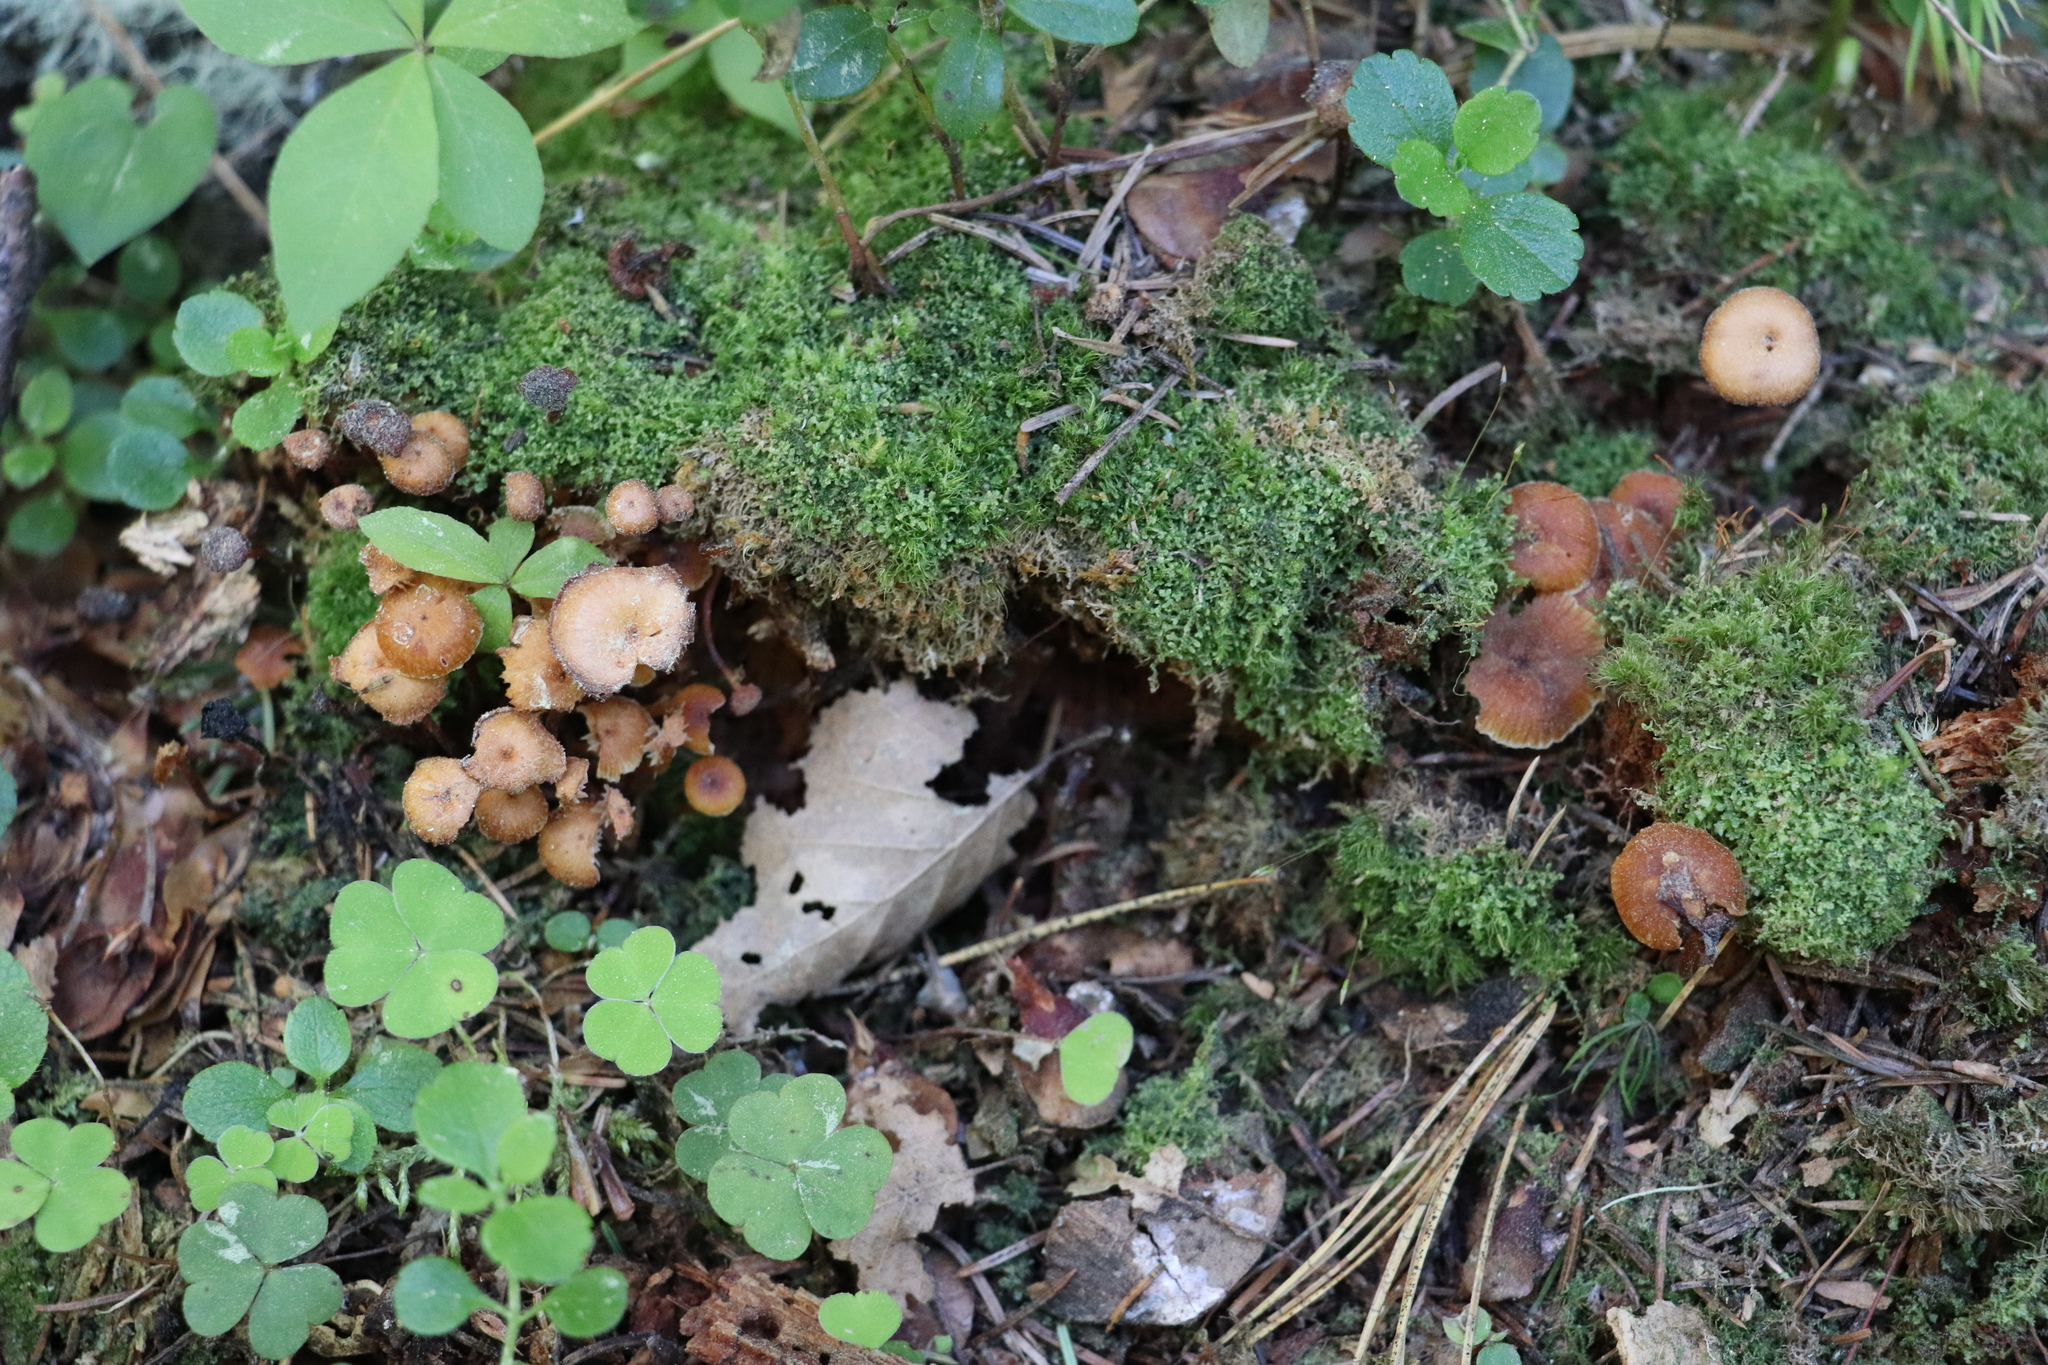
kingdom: Fungi
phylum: Basidiomycota
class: Agaricomycetes
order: Agaricales
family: Mycenaceae
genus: Xeromphalina
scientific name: Xeromphalina campanella
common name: Pinewood gingertail
